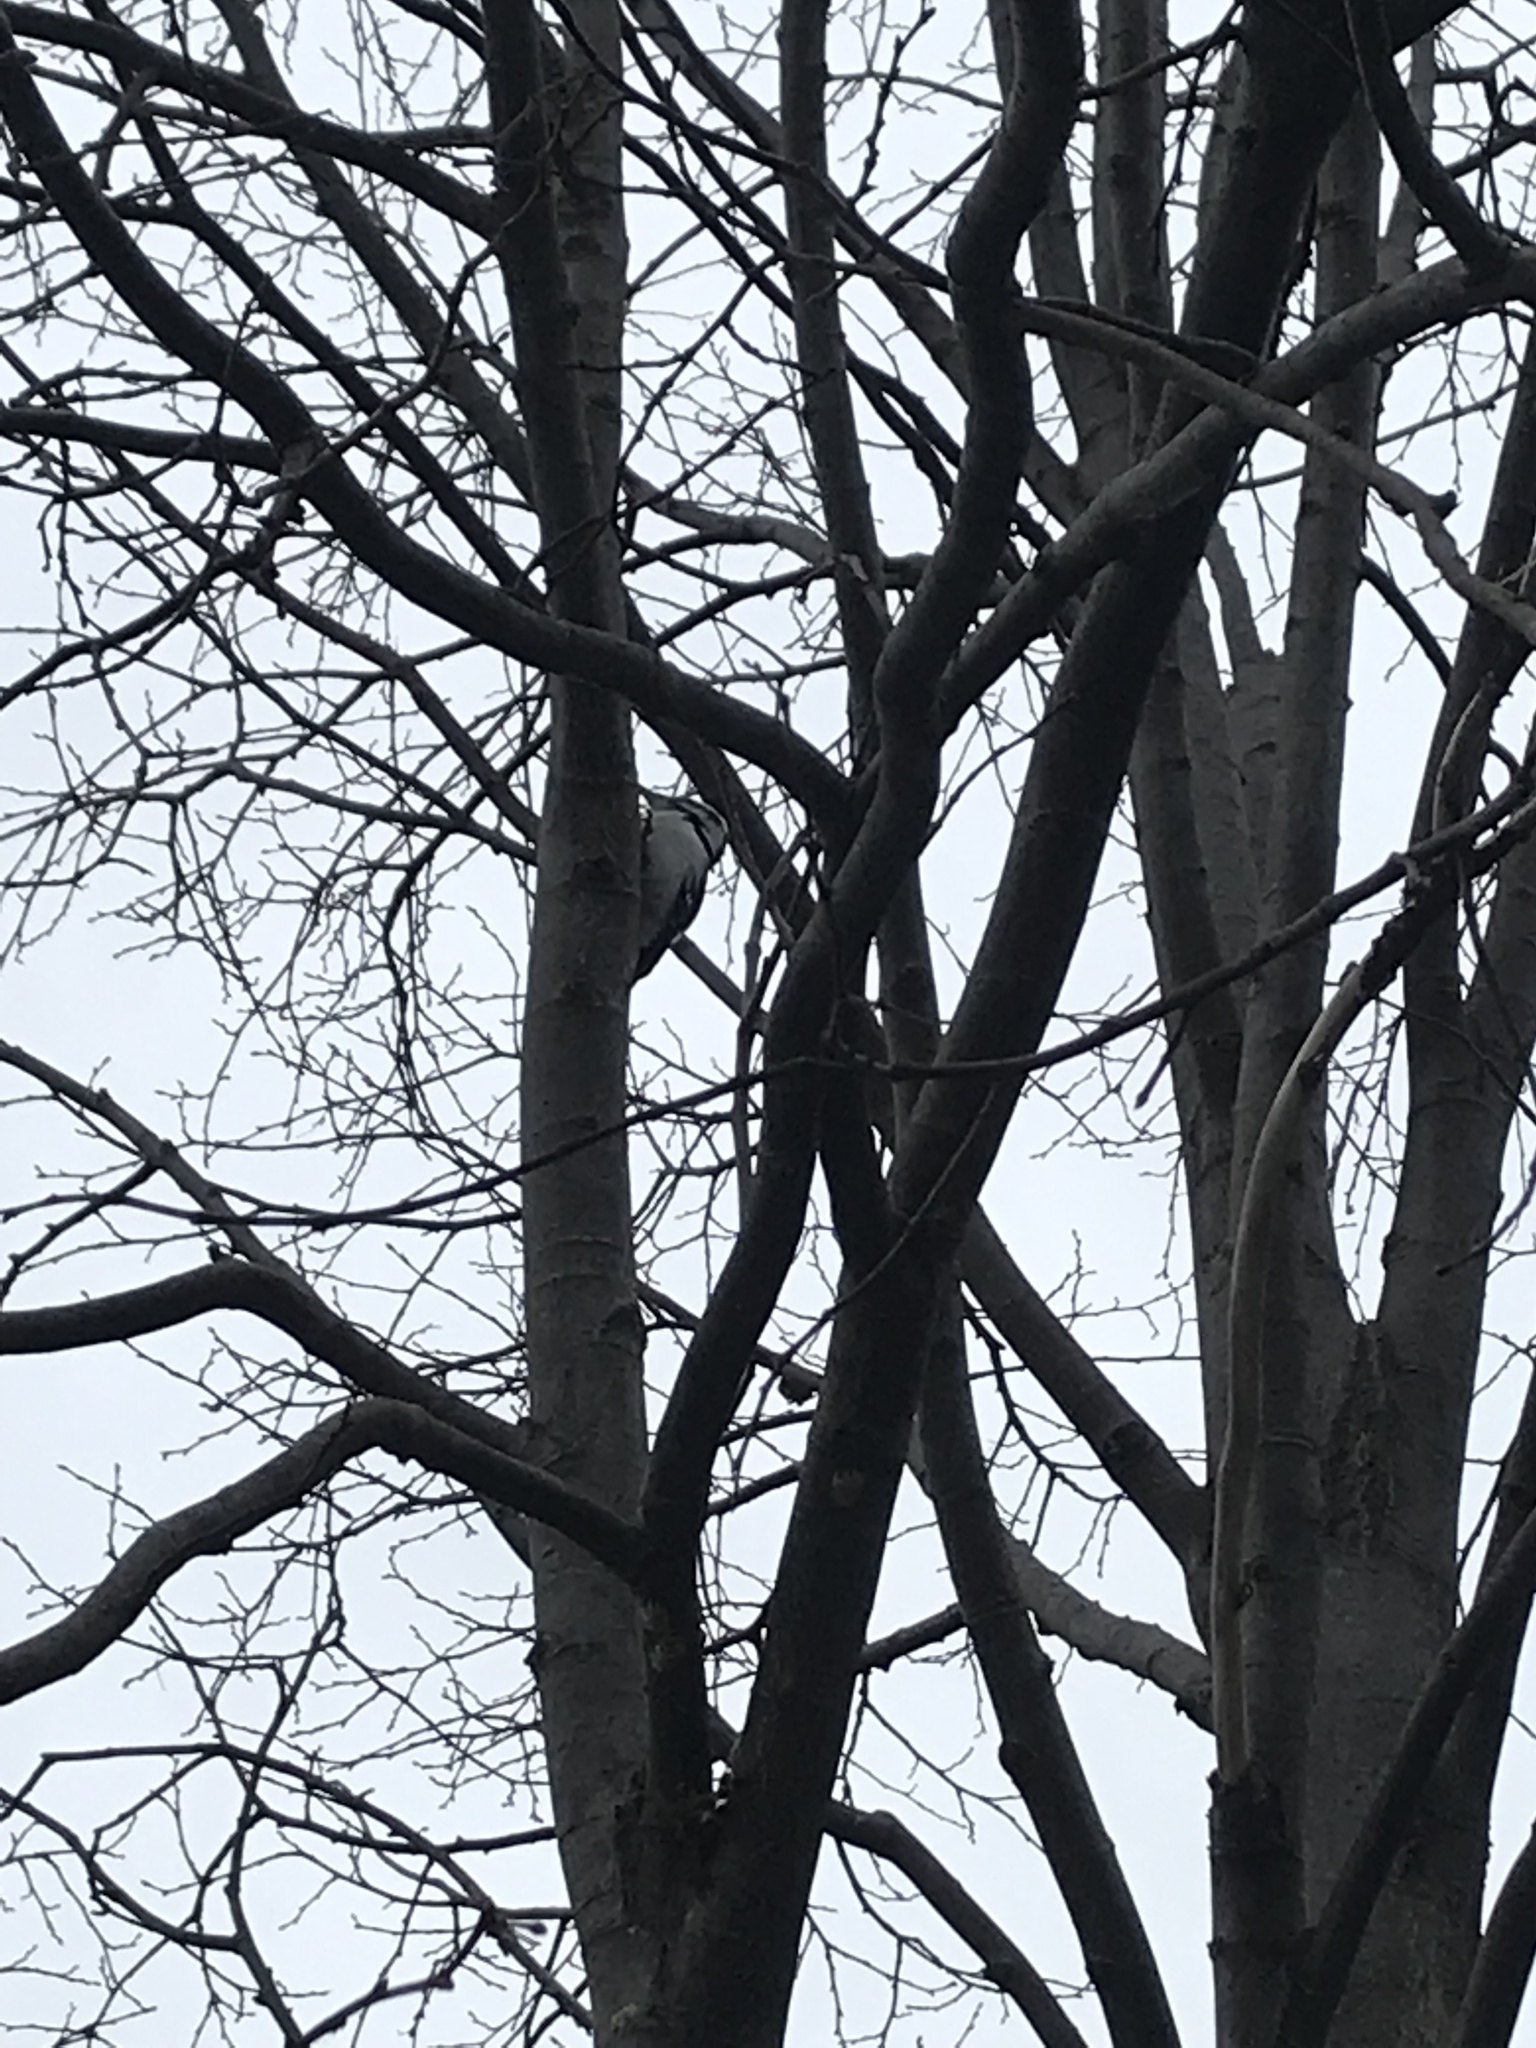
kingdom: Animalia
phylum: Chordata
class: Aves
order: Piciformes
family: Picidae
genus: Leuconotopicus
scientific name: Leuconotopicus villosus
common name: Hairy woodpecker
